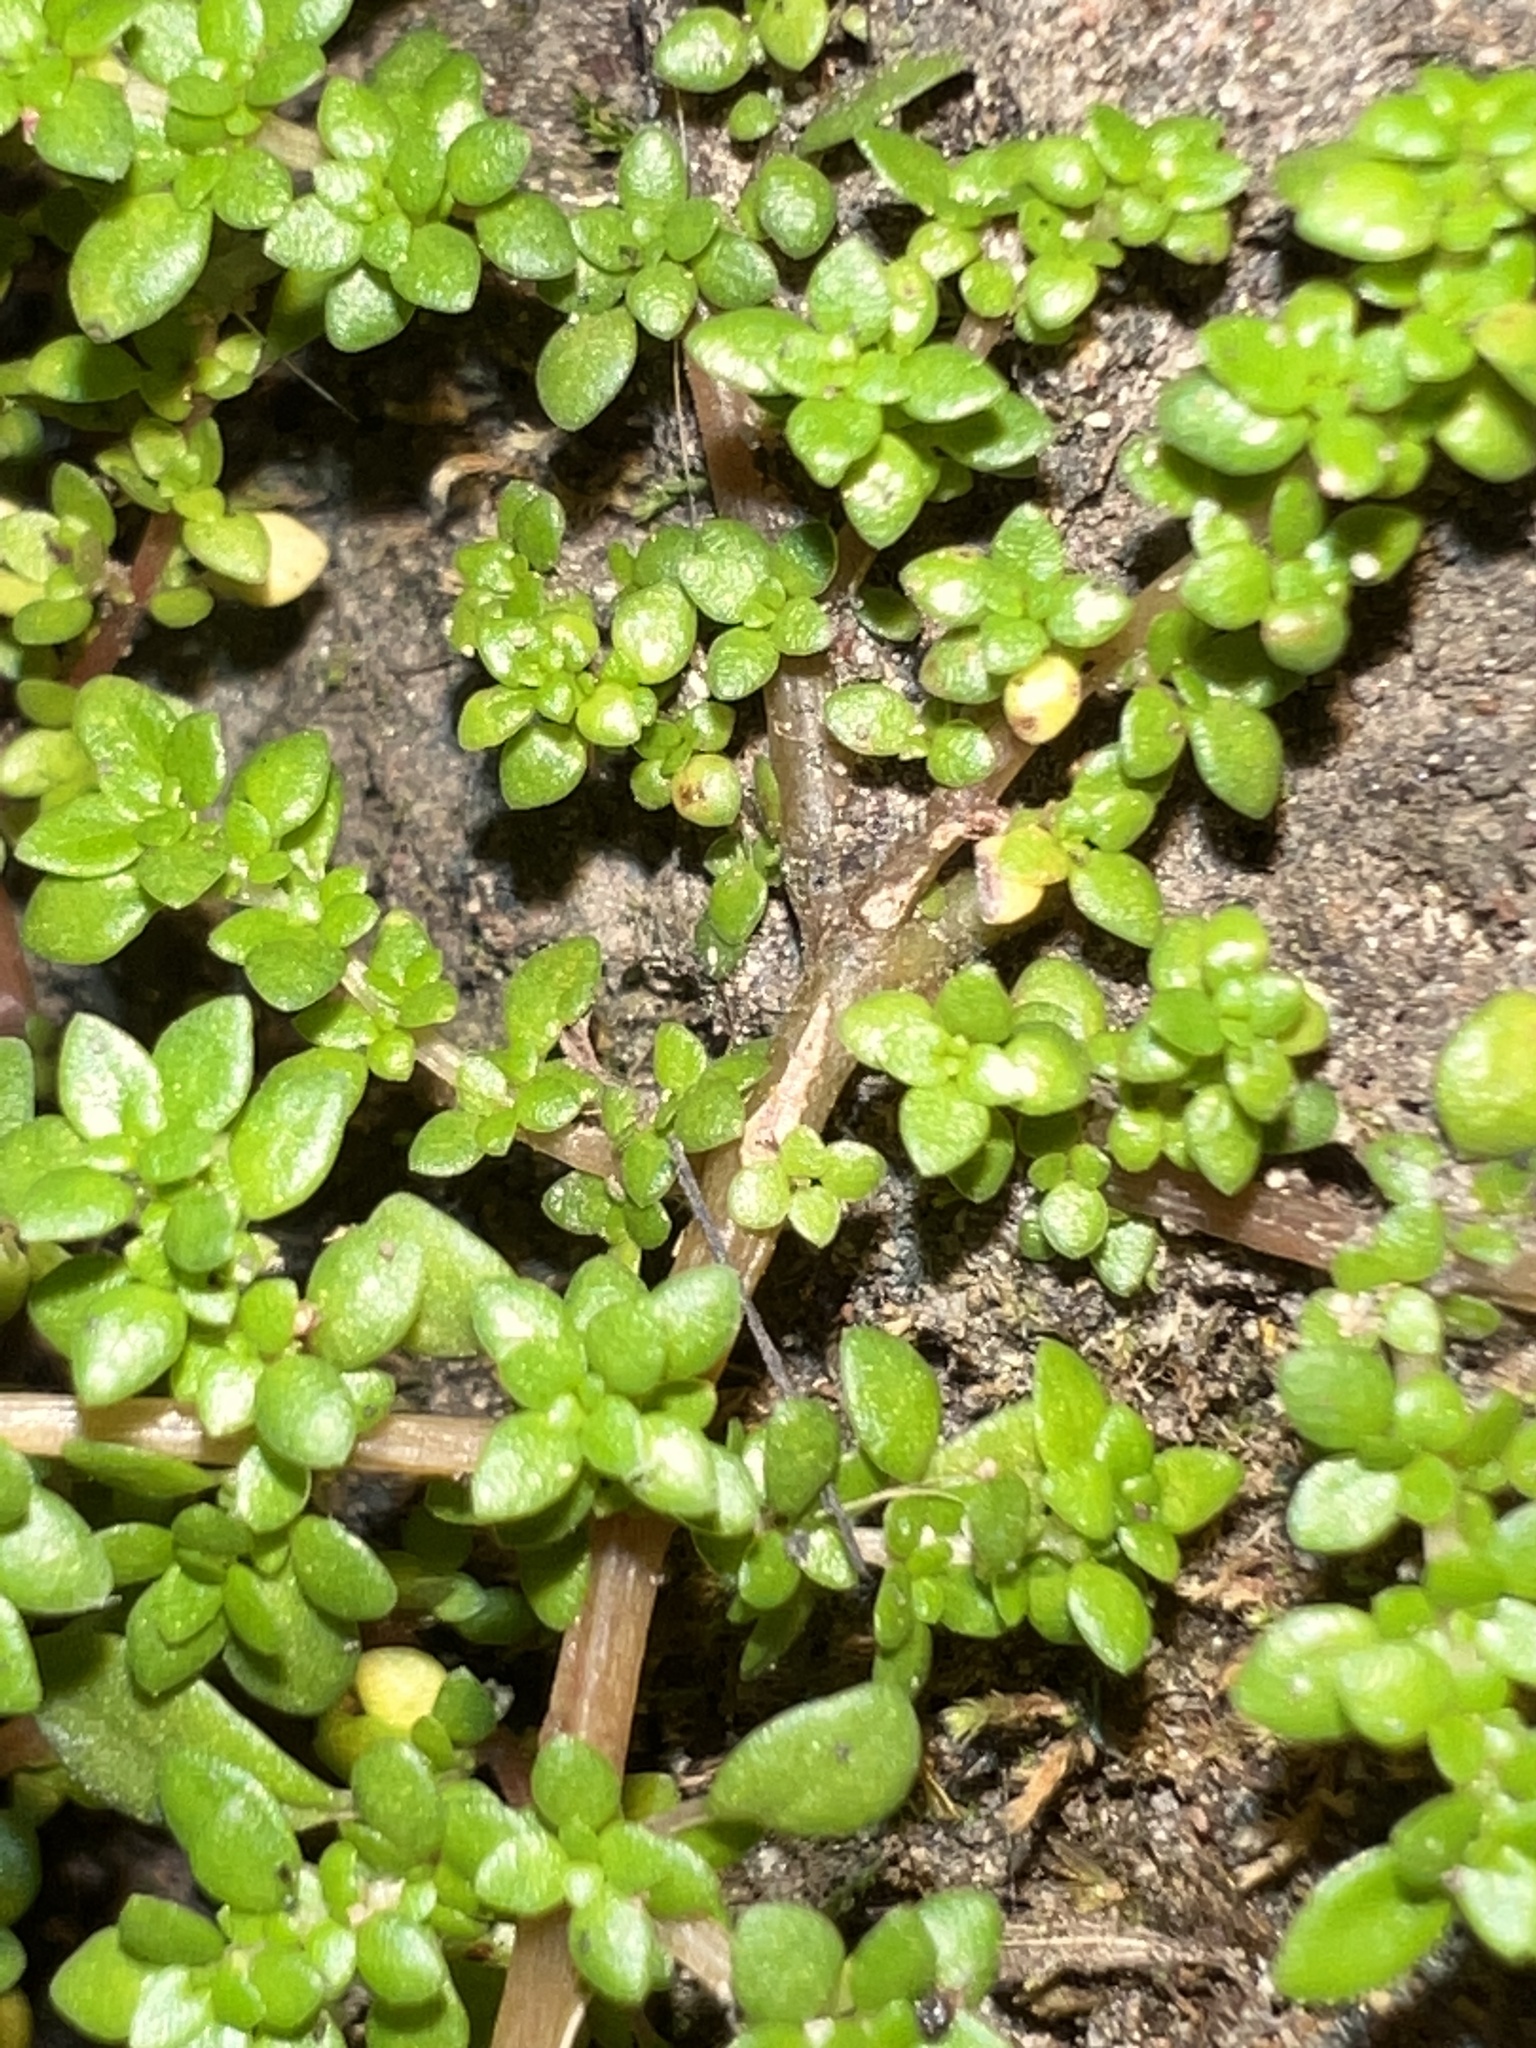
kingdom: Plantae
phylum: Tracheophyta
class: Magnoliopsida
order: Rosales
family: Urticaceae
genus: Pilea
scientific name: Pilea microphylla
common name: Artillery-plant
